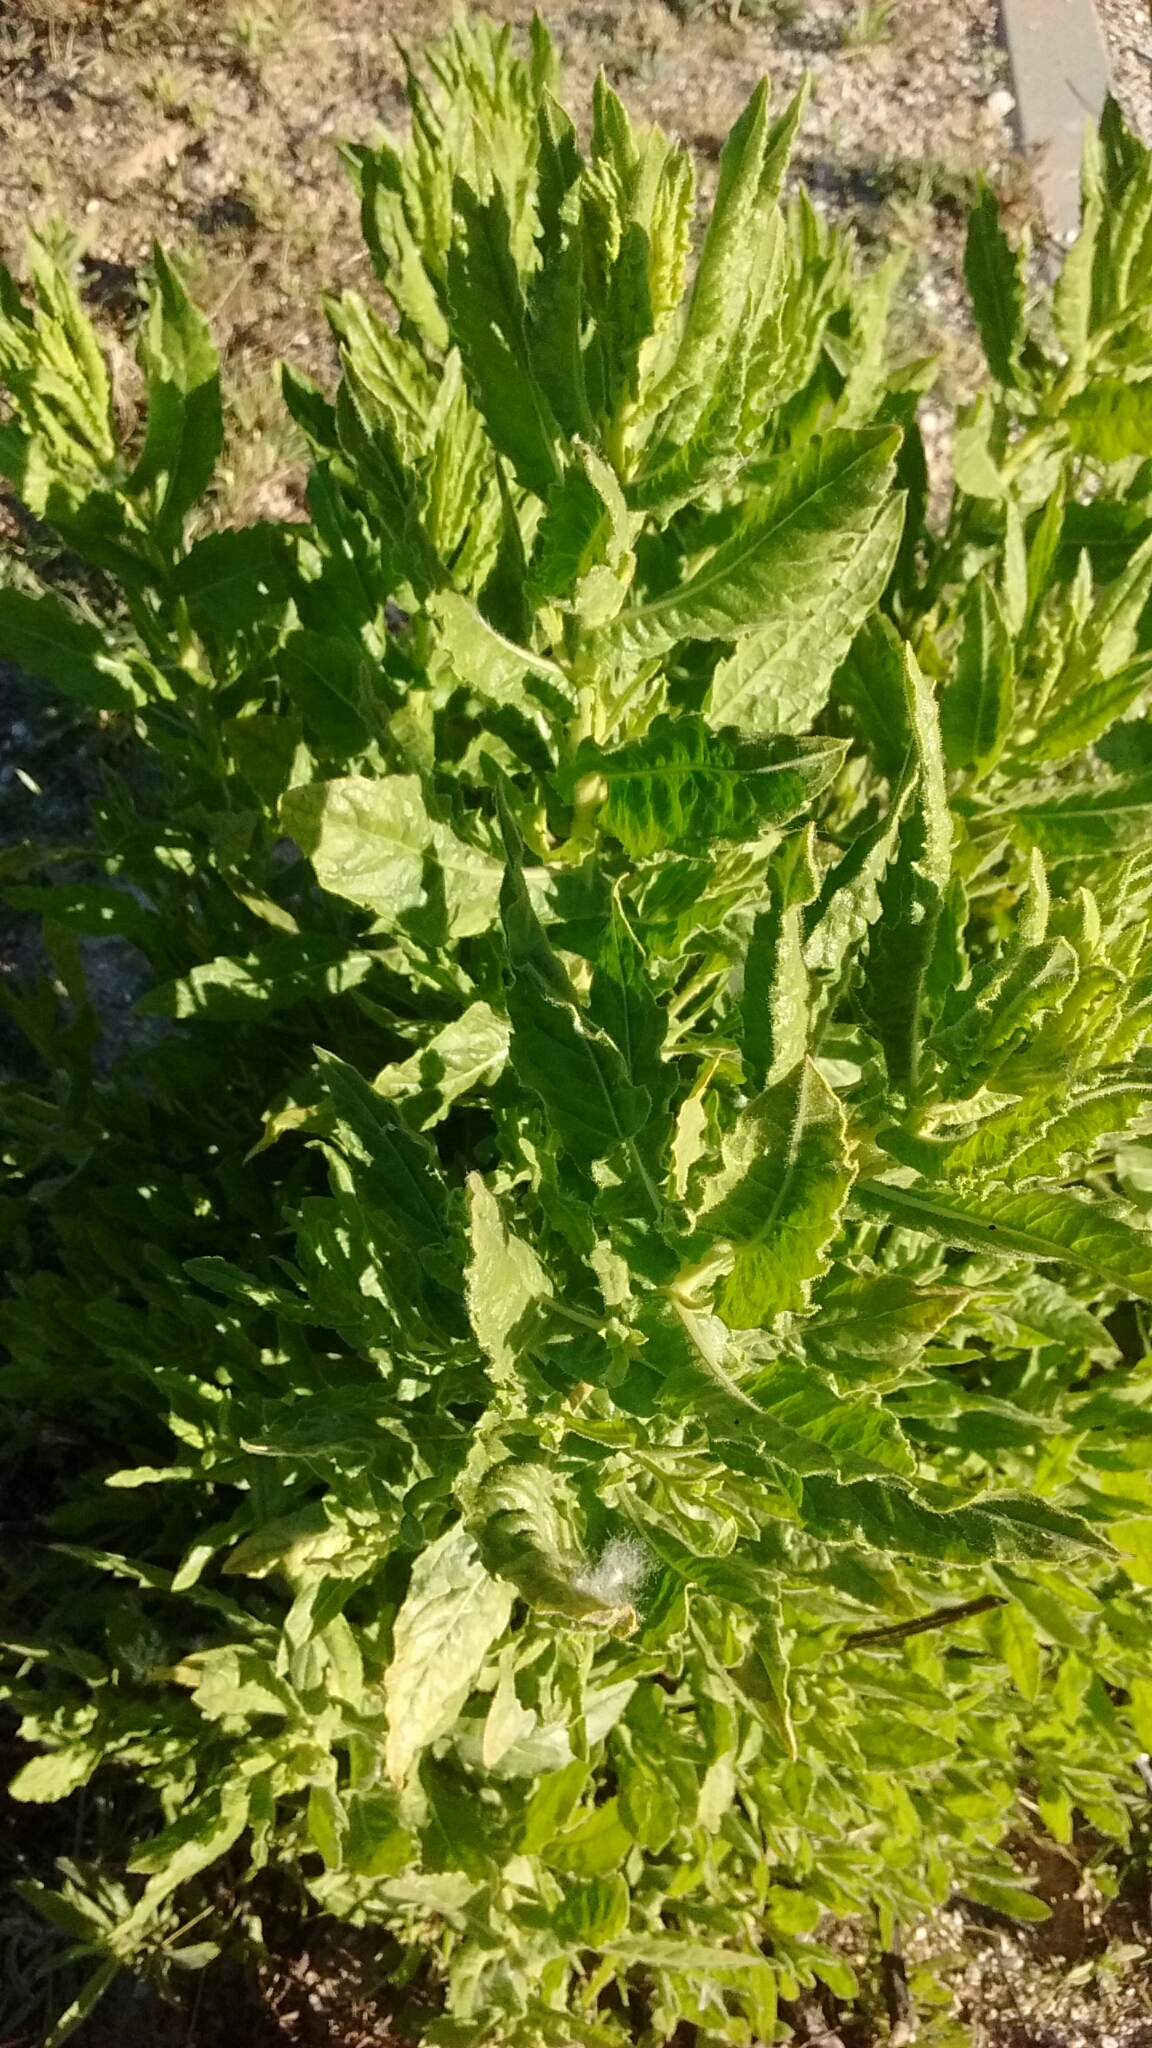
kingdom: Plantae
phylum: Tracheophyta
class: Magnoliopsida
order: Asterales
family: Asteraceae
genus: Dittrichia
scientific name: Dittrichia viscosa
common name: Woody fleabane
